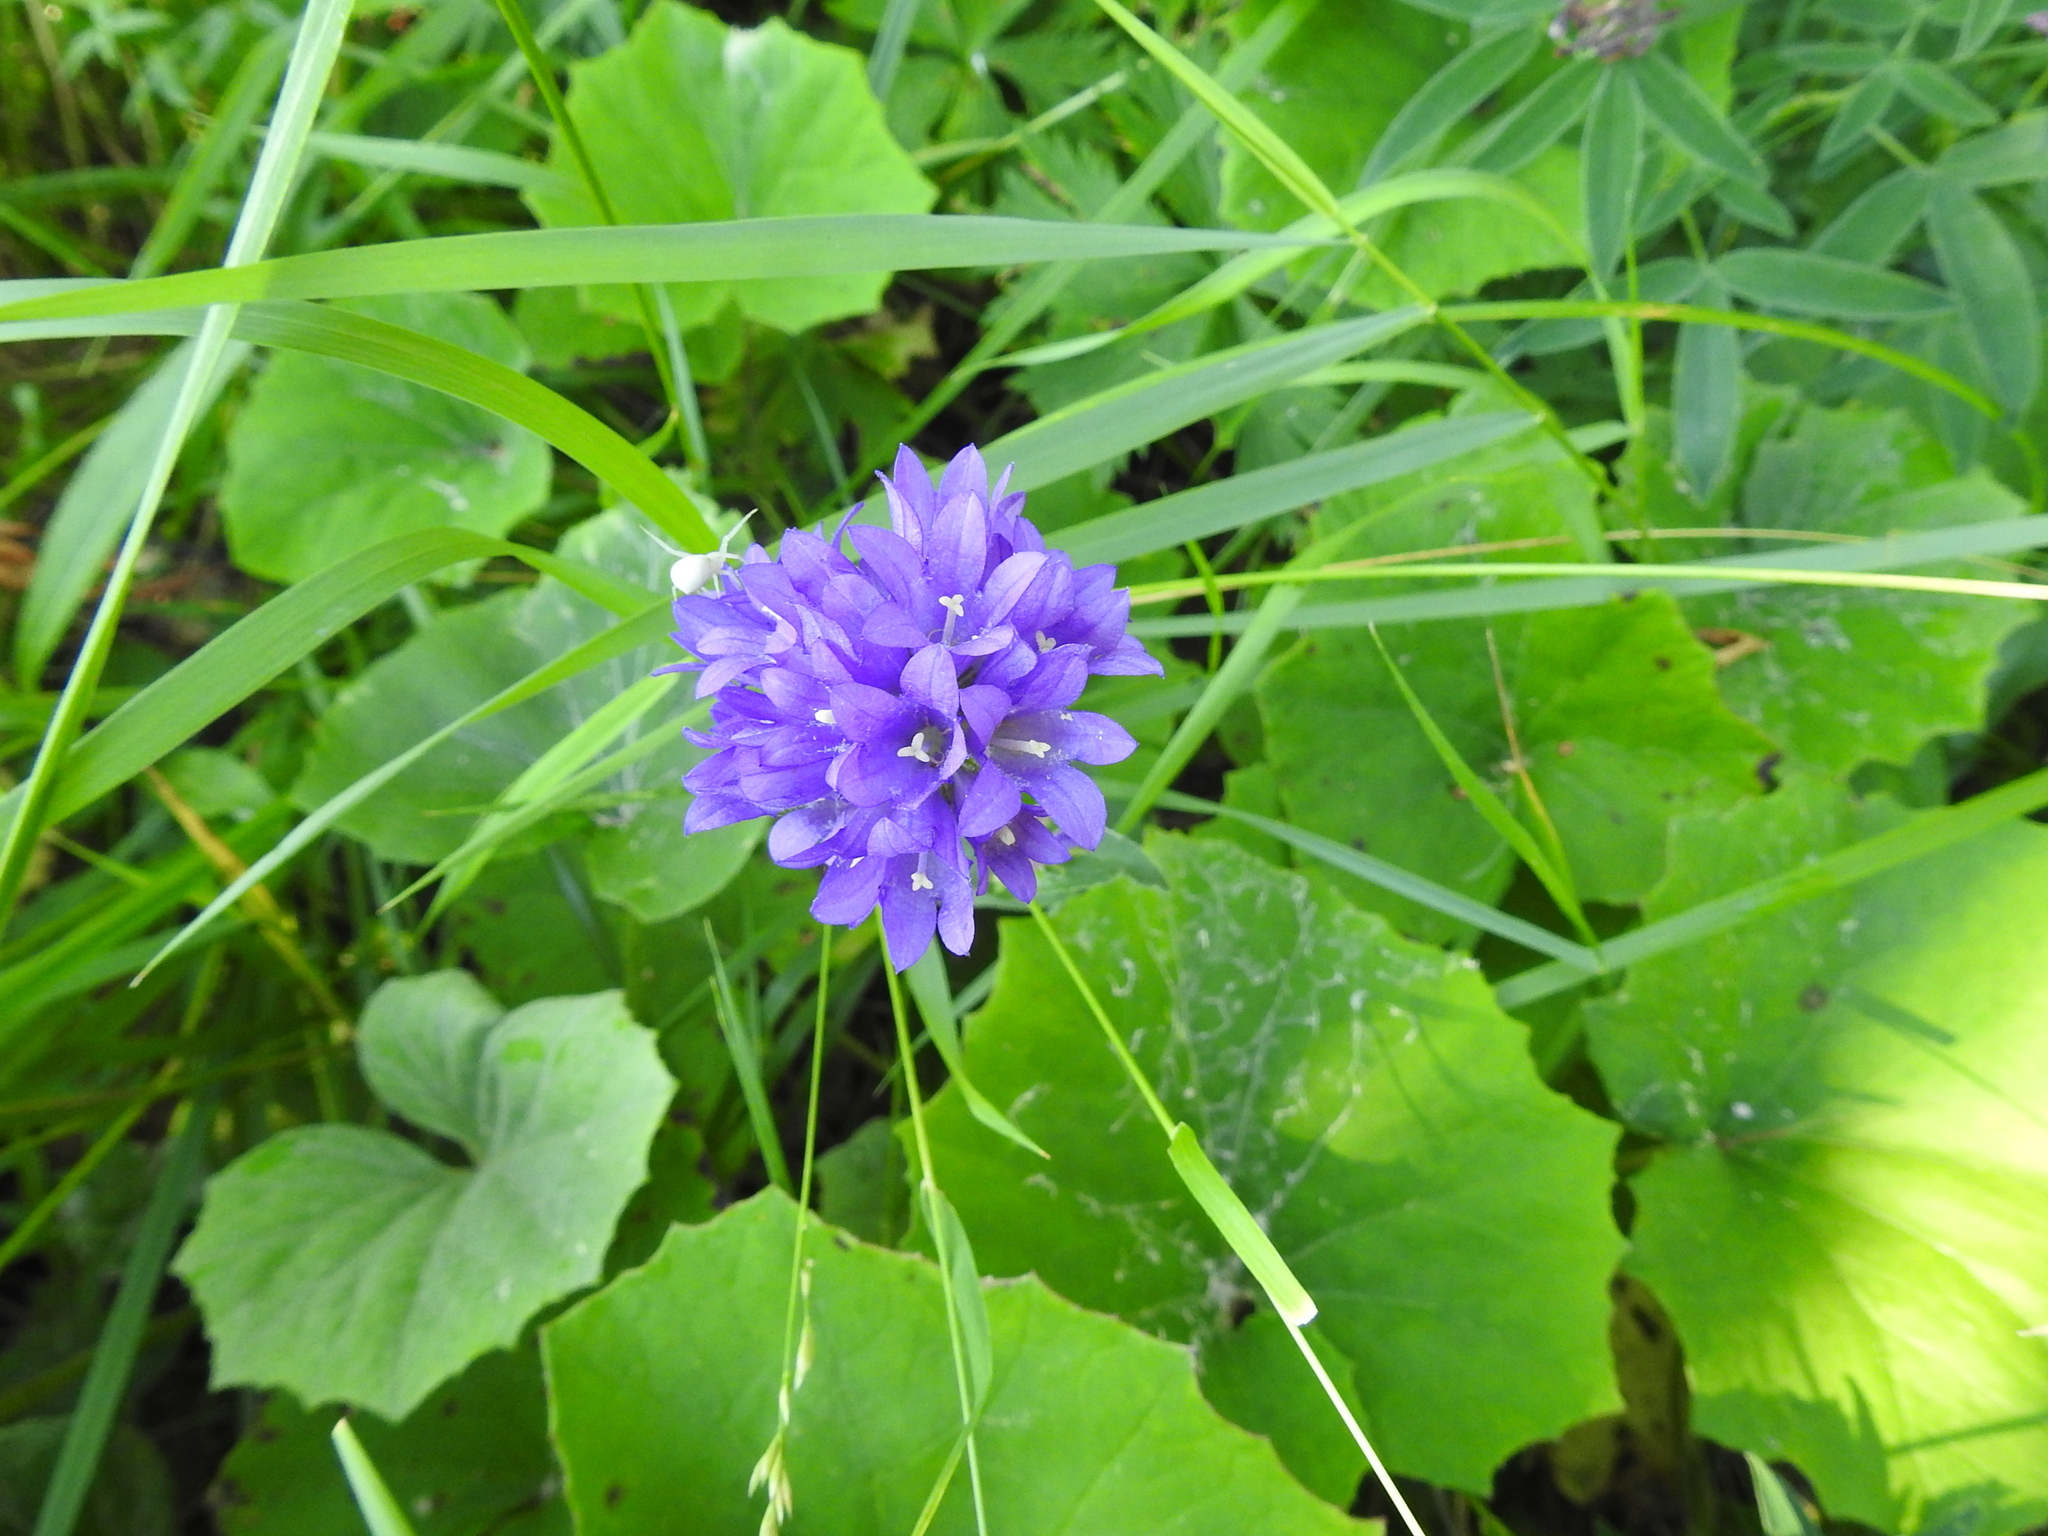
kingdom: Plantae
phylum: Tracheophyta
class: Magnoliopsida
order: Asterales
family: Campanulaceae
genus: Campanula
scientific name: Campanula glomerata
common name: Clustered bellflower
